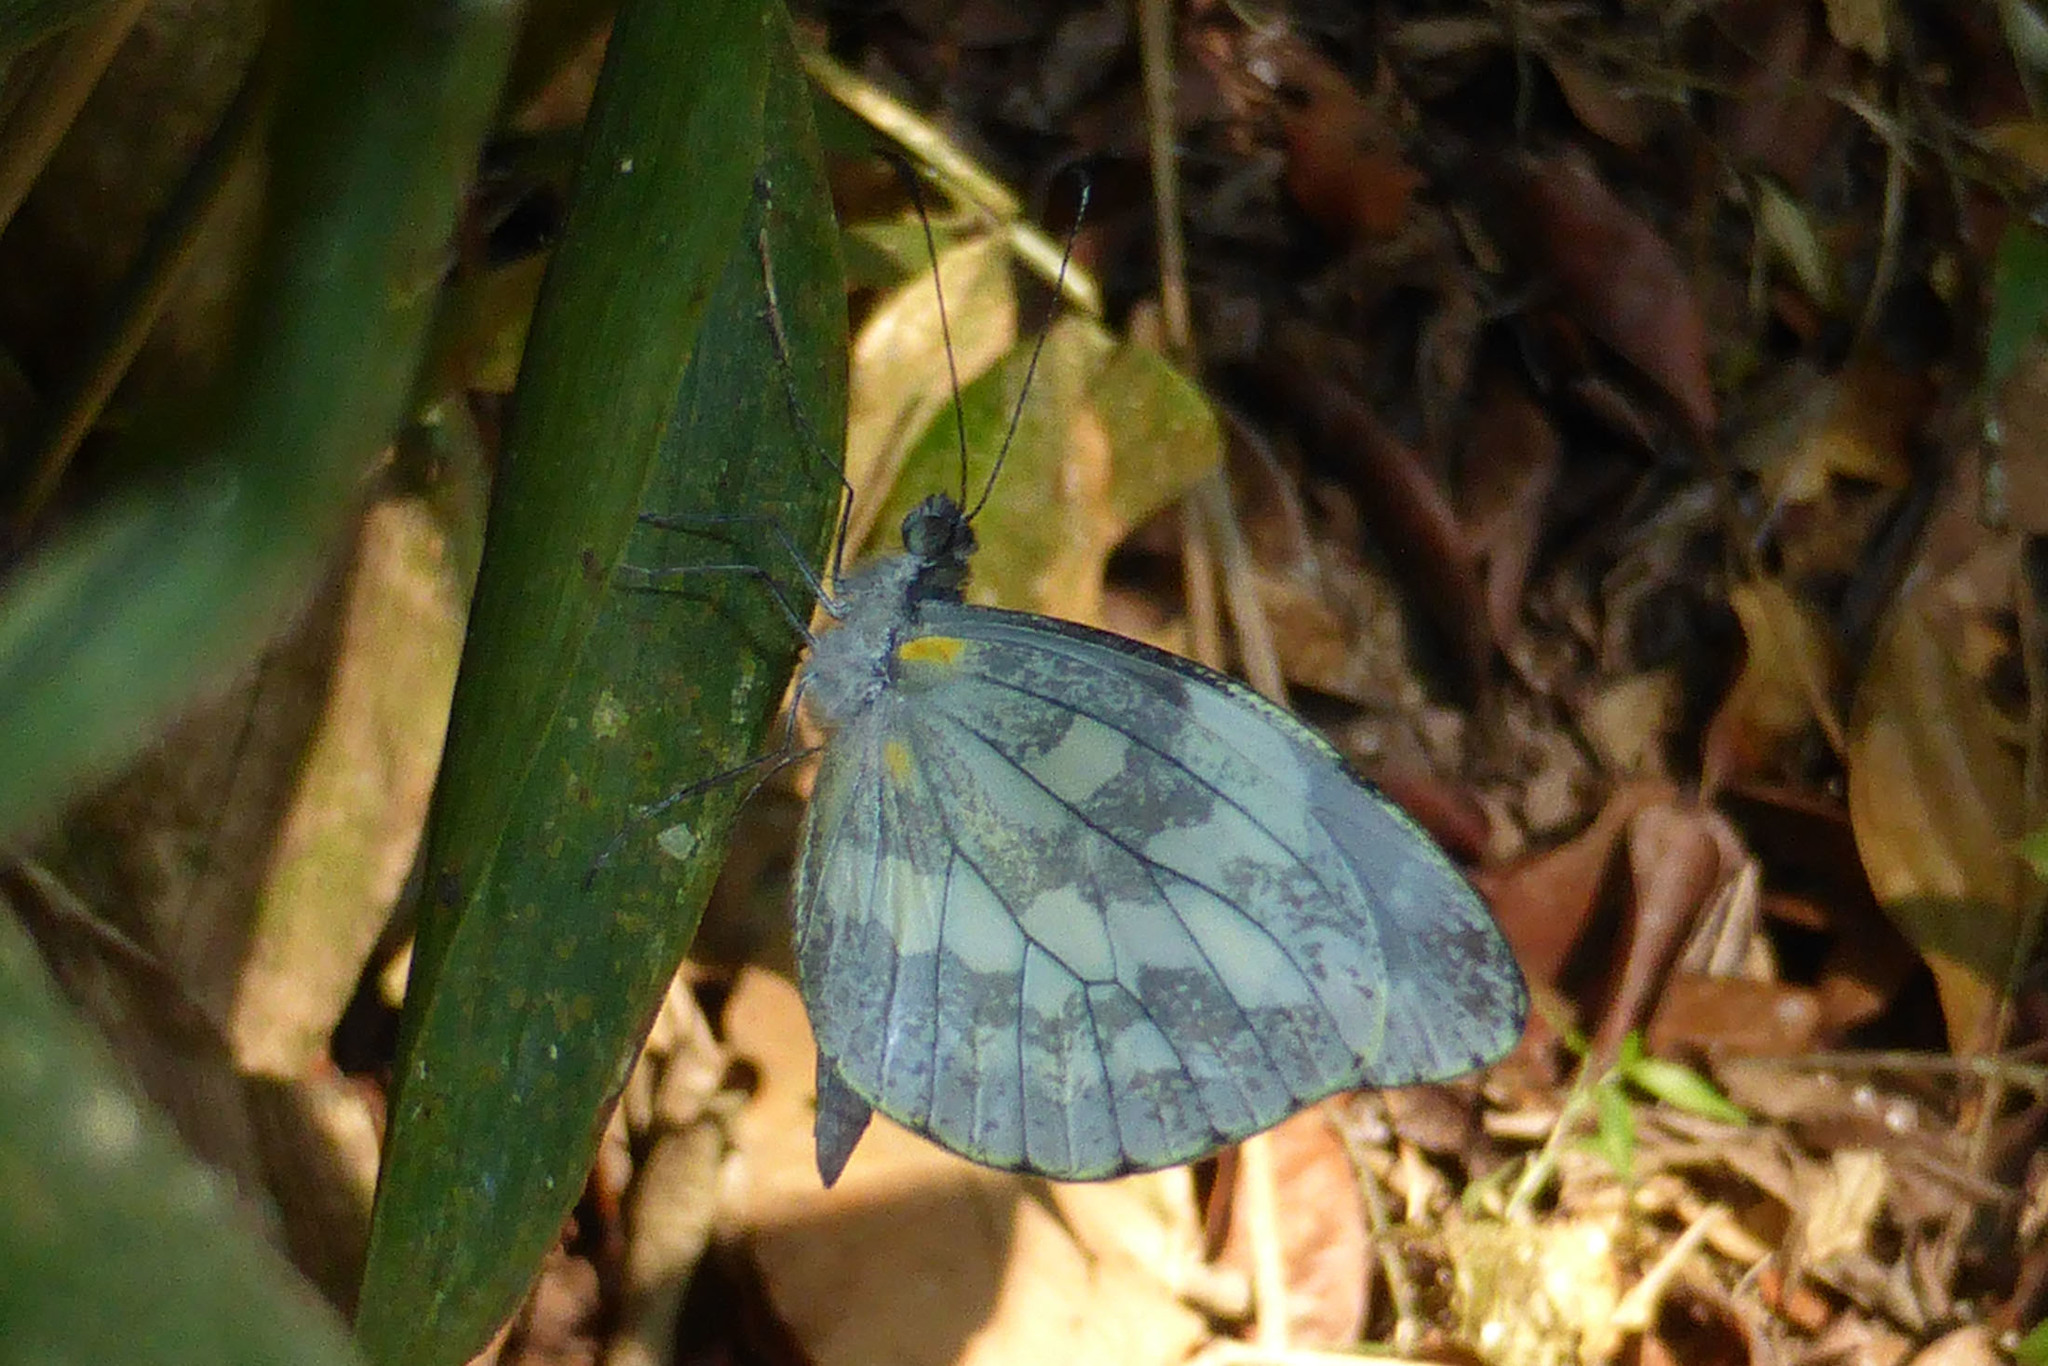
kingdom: Animalia
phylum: Arthropoda
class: Insecta
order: Lepidoptera
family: Pieridae
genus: Dismorphia
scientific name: Dismorphia crisia
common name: Crisia mimic-white
